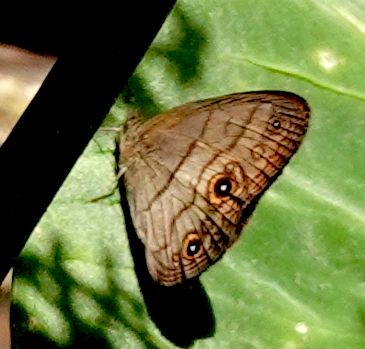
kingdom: Animalia
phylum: Arthropoda
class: Insecta
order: Lepidoptera
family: Nymphalidae
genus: Hermeuptychia
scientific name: Hermeuptychia harmonia
